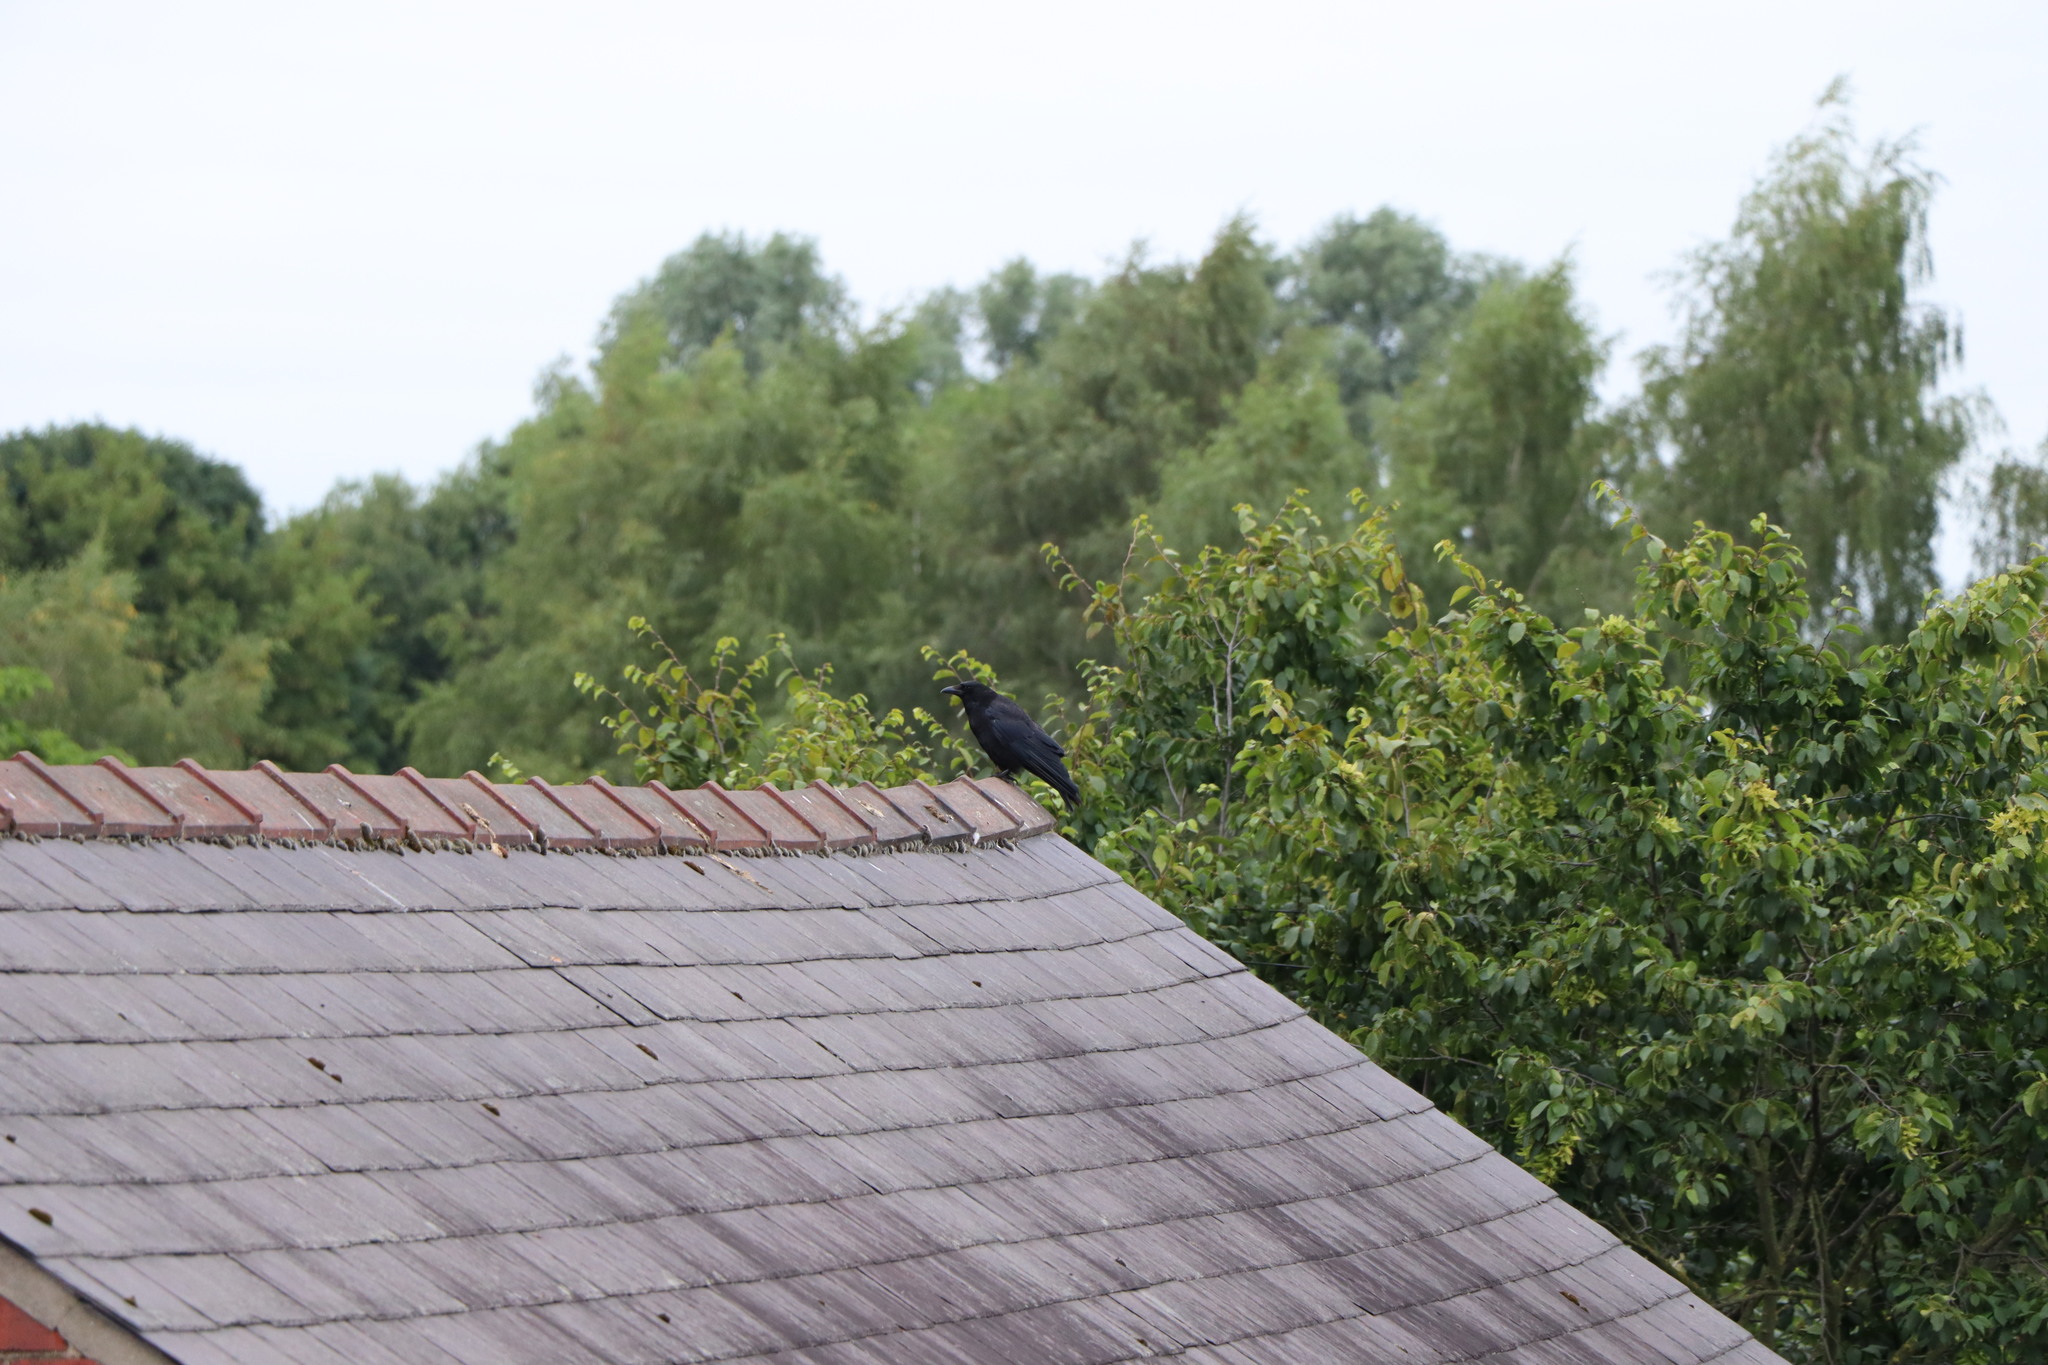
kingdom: Animalia
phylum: Chordata
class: Aves
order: Passeriformes
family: Corvidae
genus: Corvus
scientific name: Corvus corone
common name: Carrion crow
